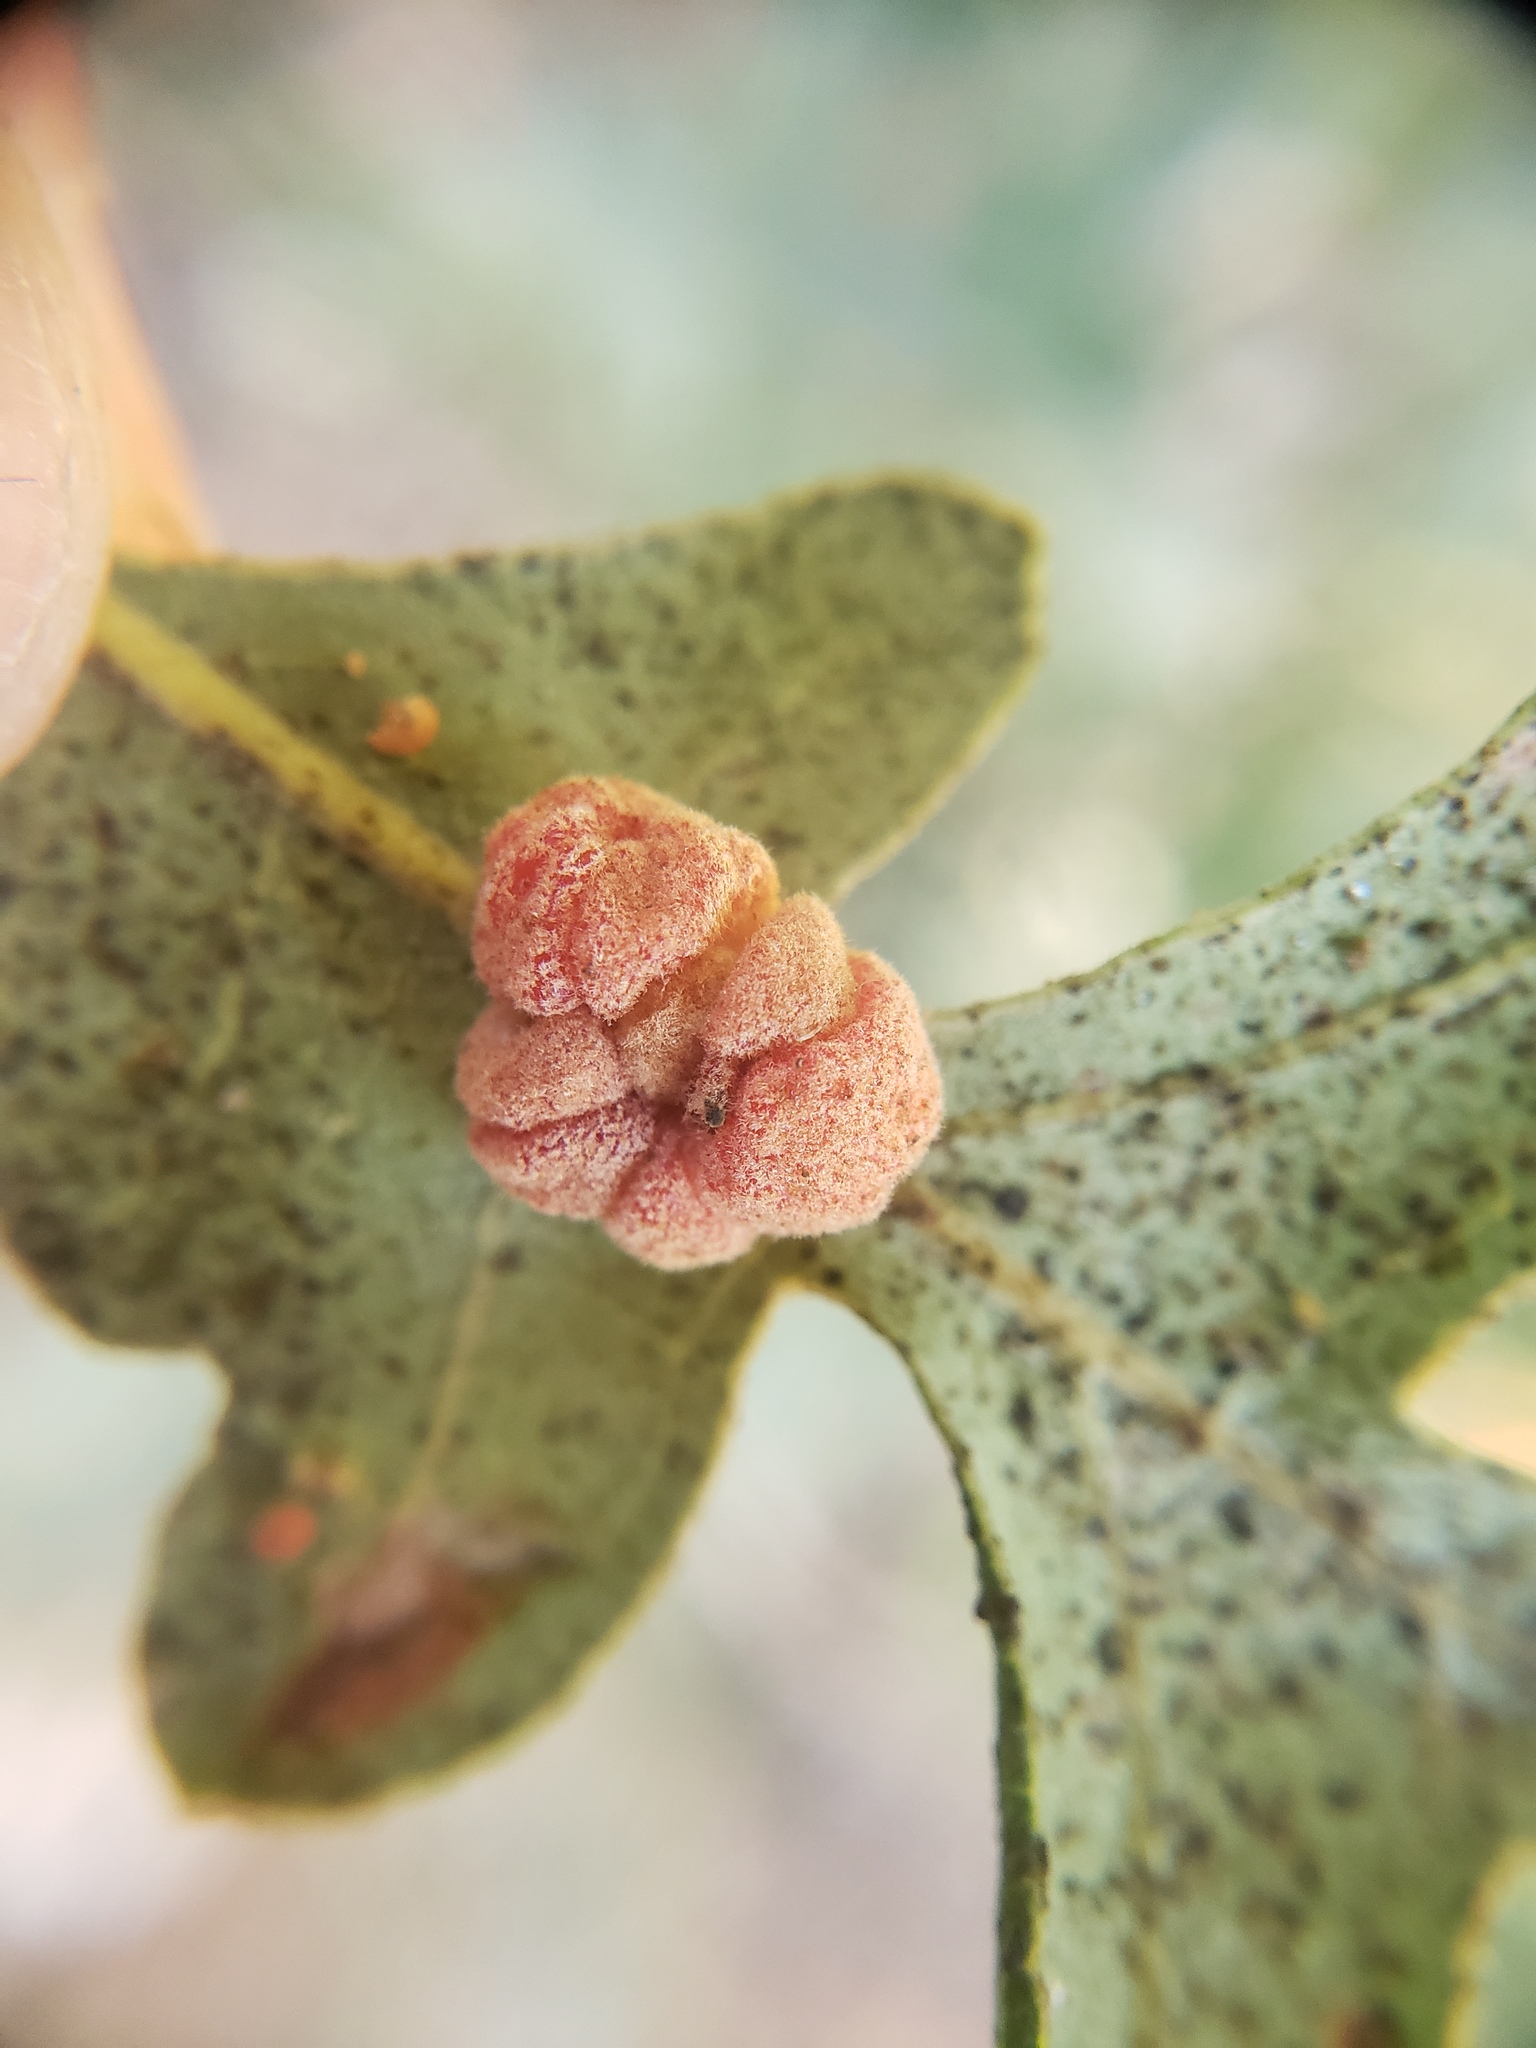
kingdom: Animalia
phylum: Arthropoda
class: Insecta
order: Hymenoptera
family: Cynipidae
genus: Andricus
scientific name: Andricus
